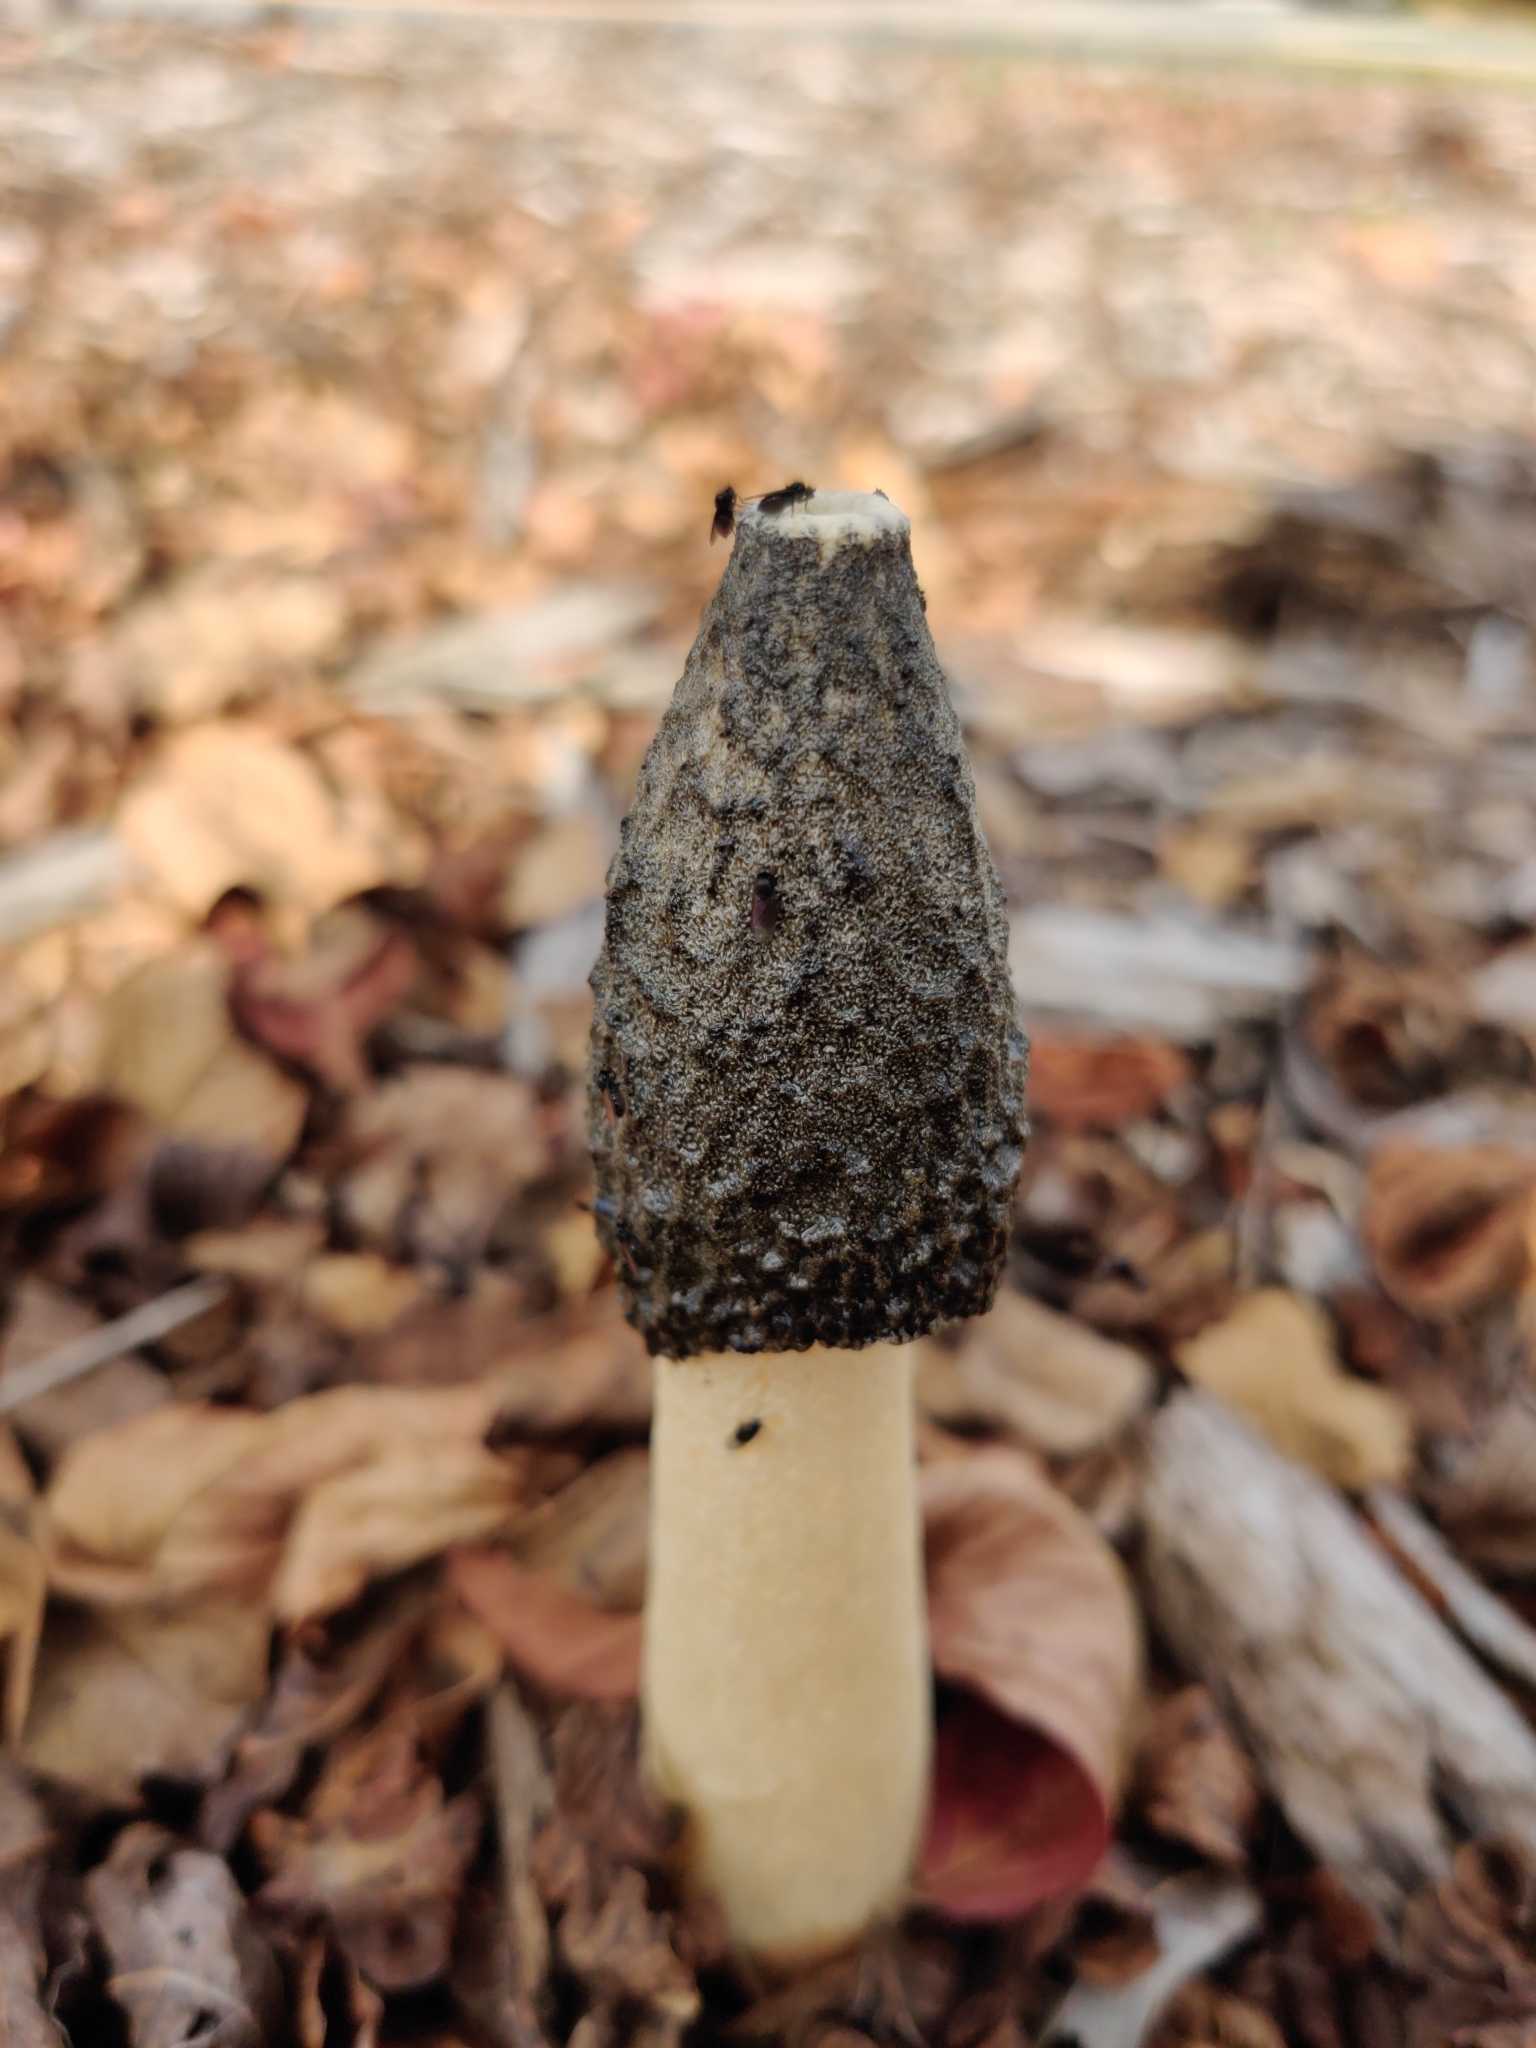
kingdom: Fungi
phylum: Basidiomycota
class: Agaricomycetes
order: Phallales
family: Phallaceae
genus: Phallus
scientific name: Phallus ravenelii
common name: Ravenel's stinkhorn
